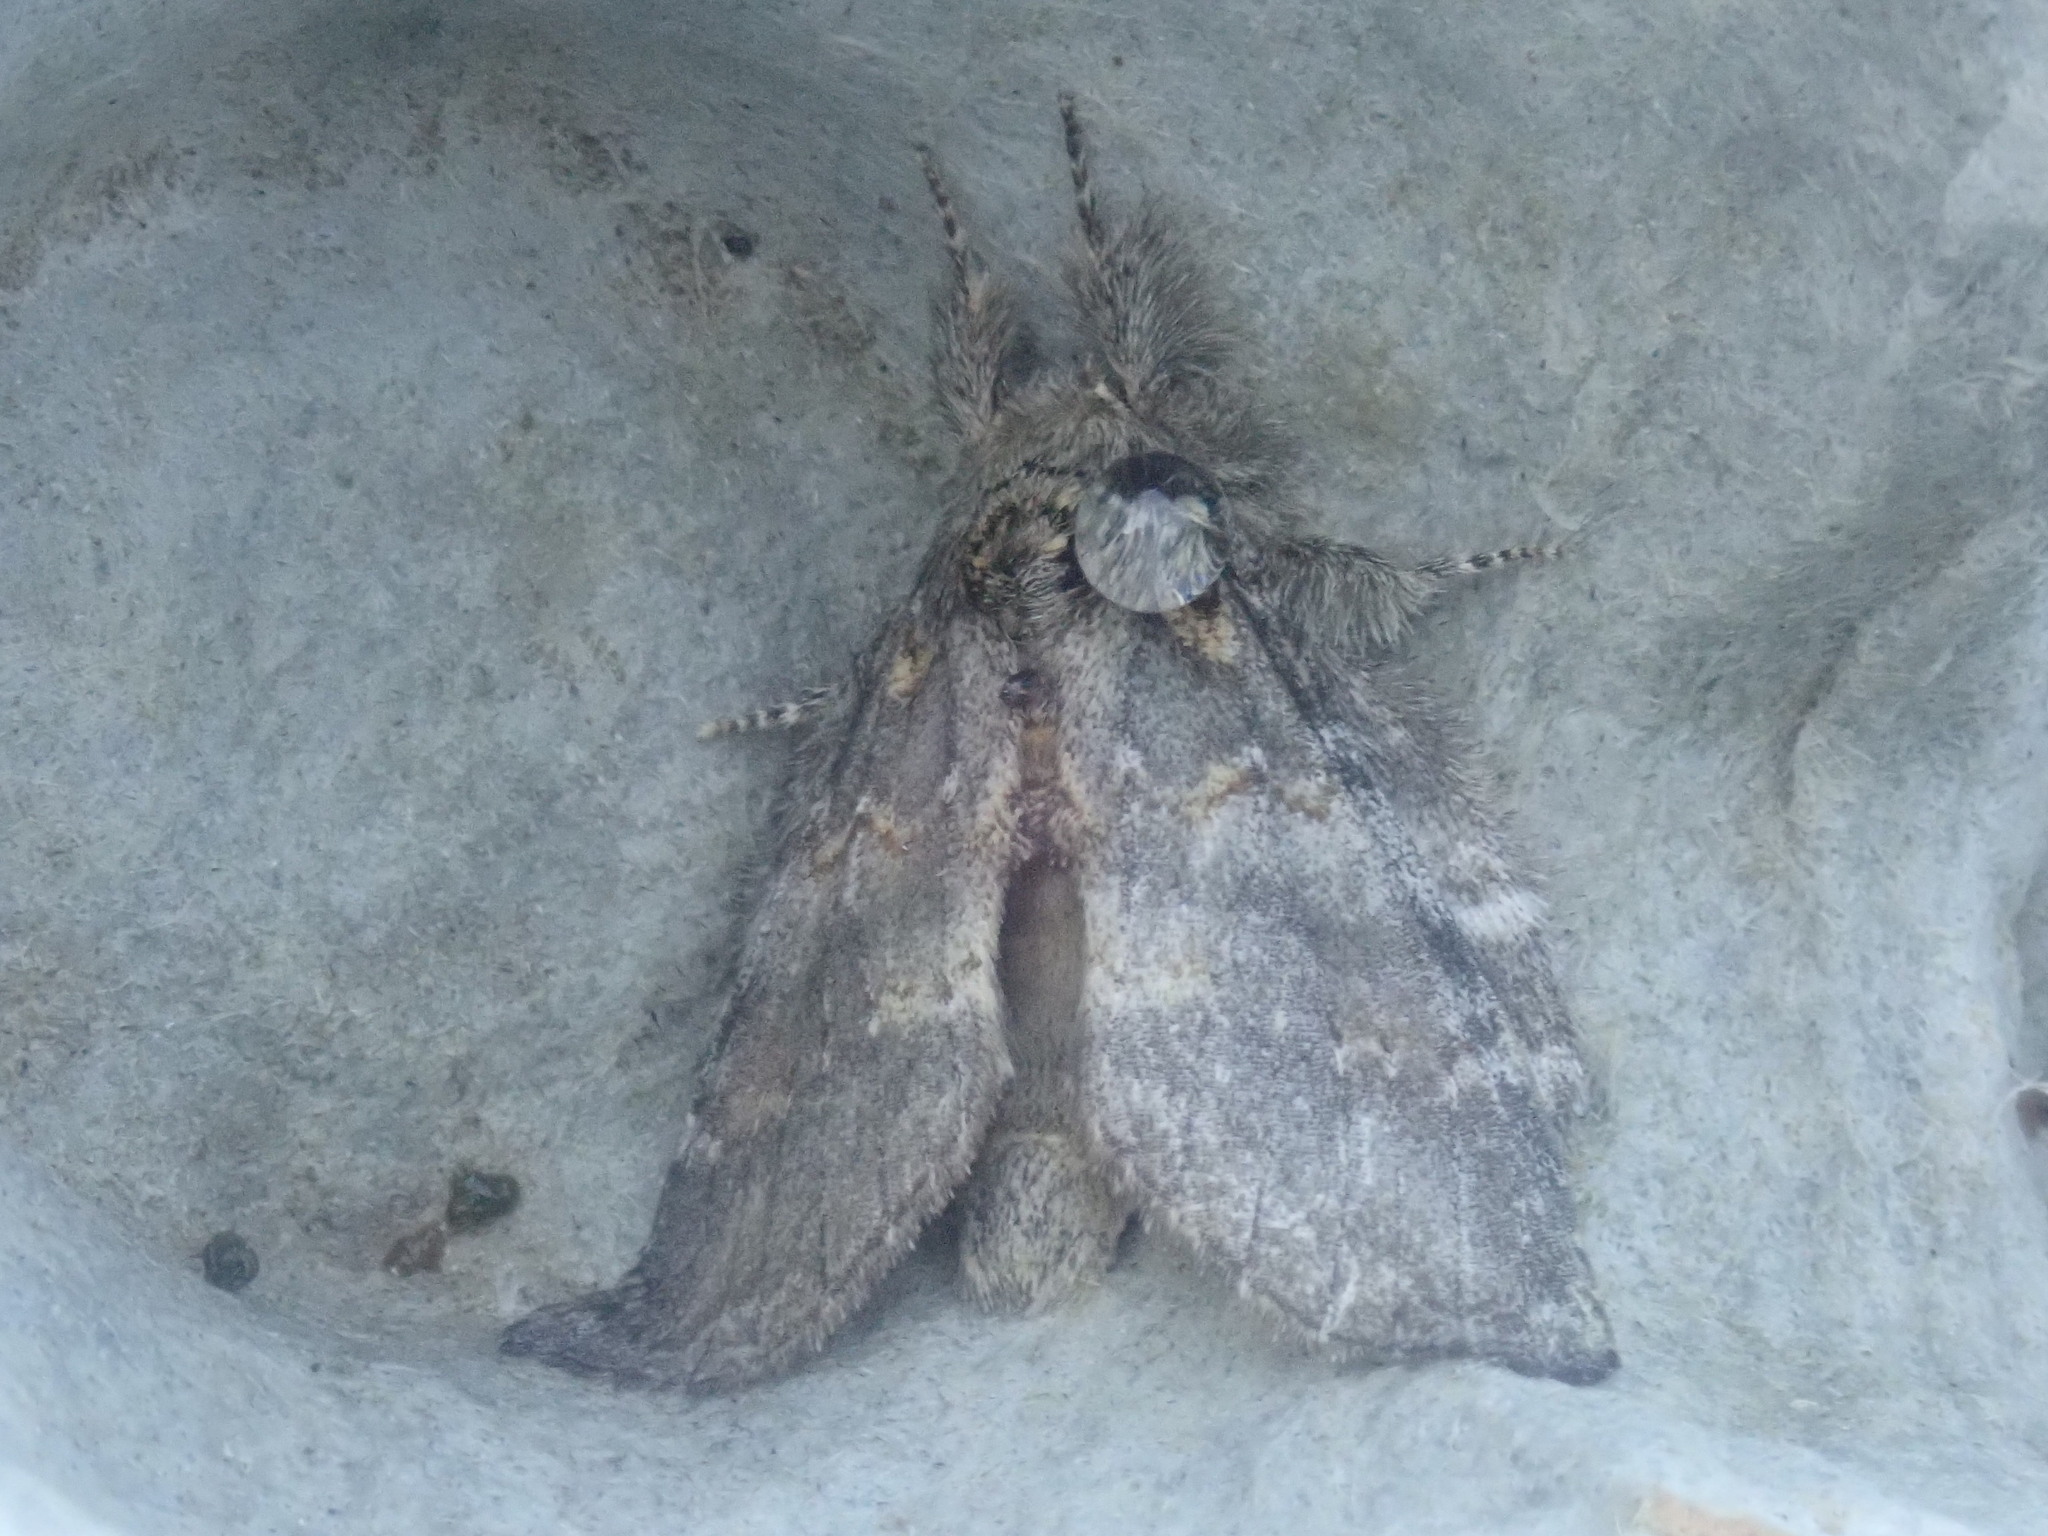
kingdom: Animalia
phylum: Arthropoda
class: Insecta
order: Lepidoptera
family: Notodontidae
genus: Peridea
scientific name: Peridea angulosa
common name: Angulose prominent
